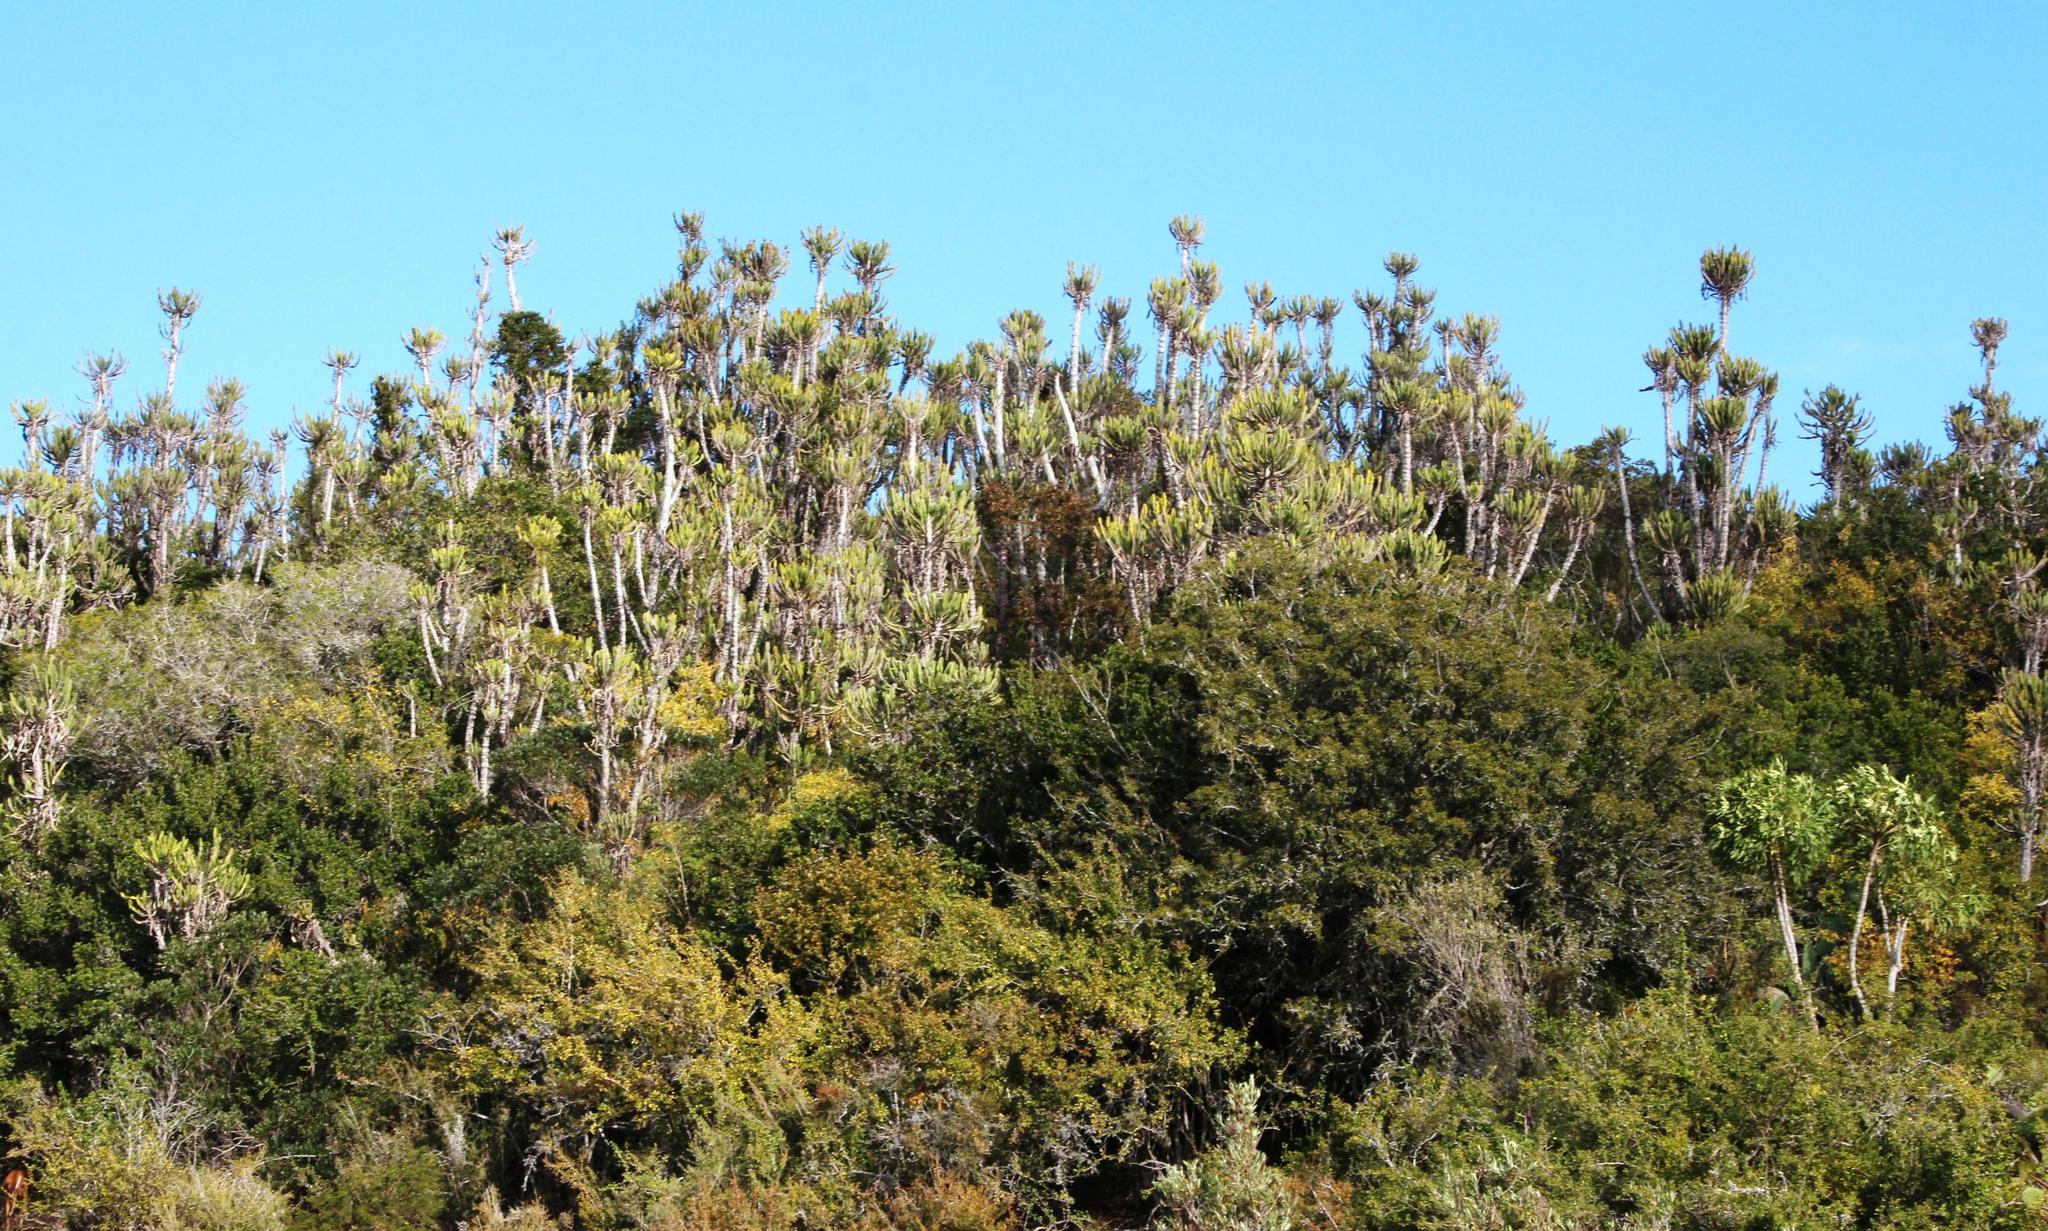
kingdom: Plantae
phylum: Tracheophyta
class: Magnoliopsida
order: Malpighiales
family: Euphorbiaceae
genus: Euphorbia
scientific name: Euphorbia triangularis
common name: Chandelier tree
